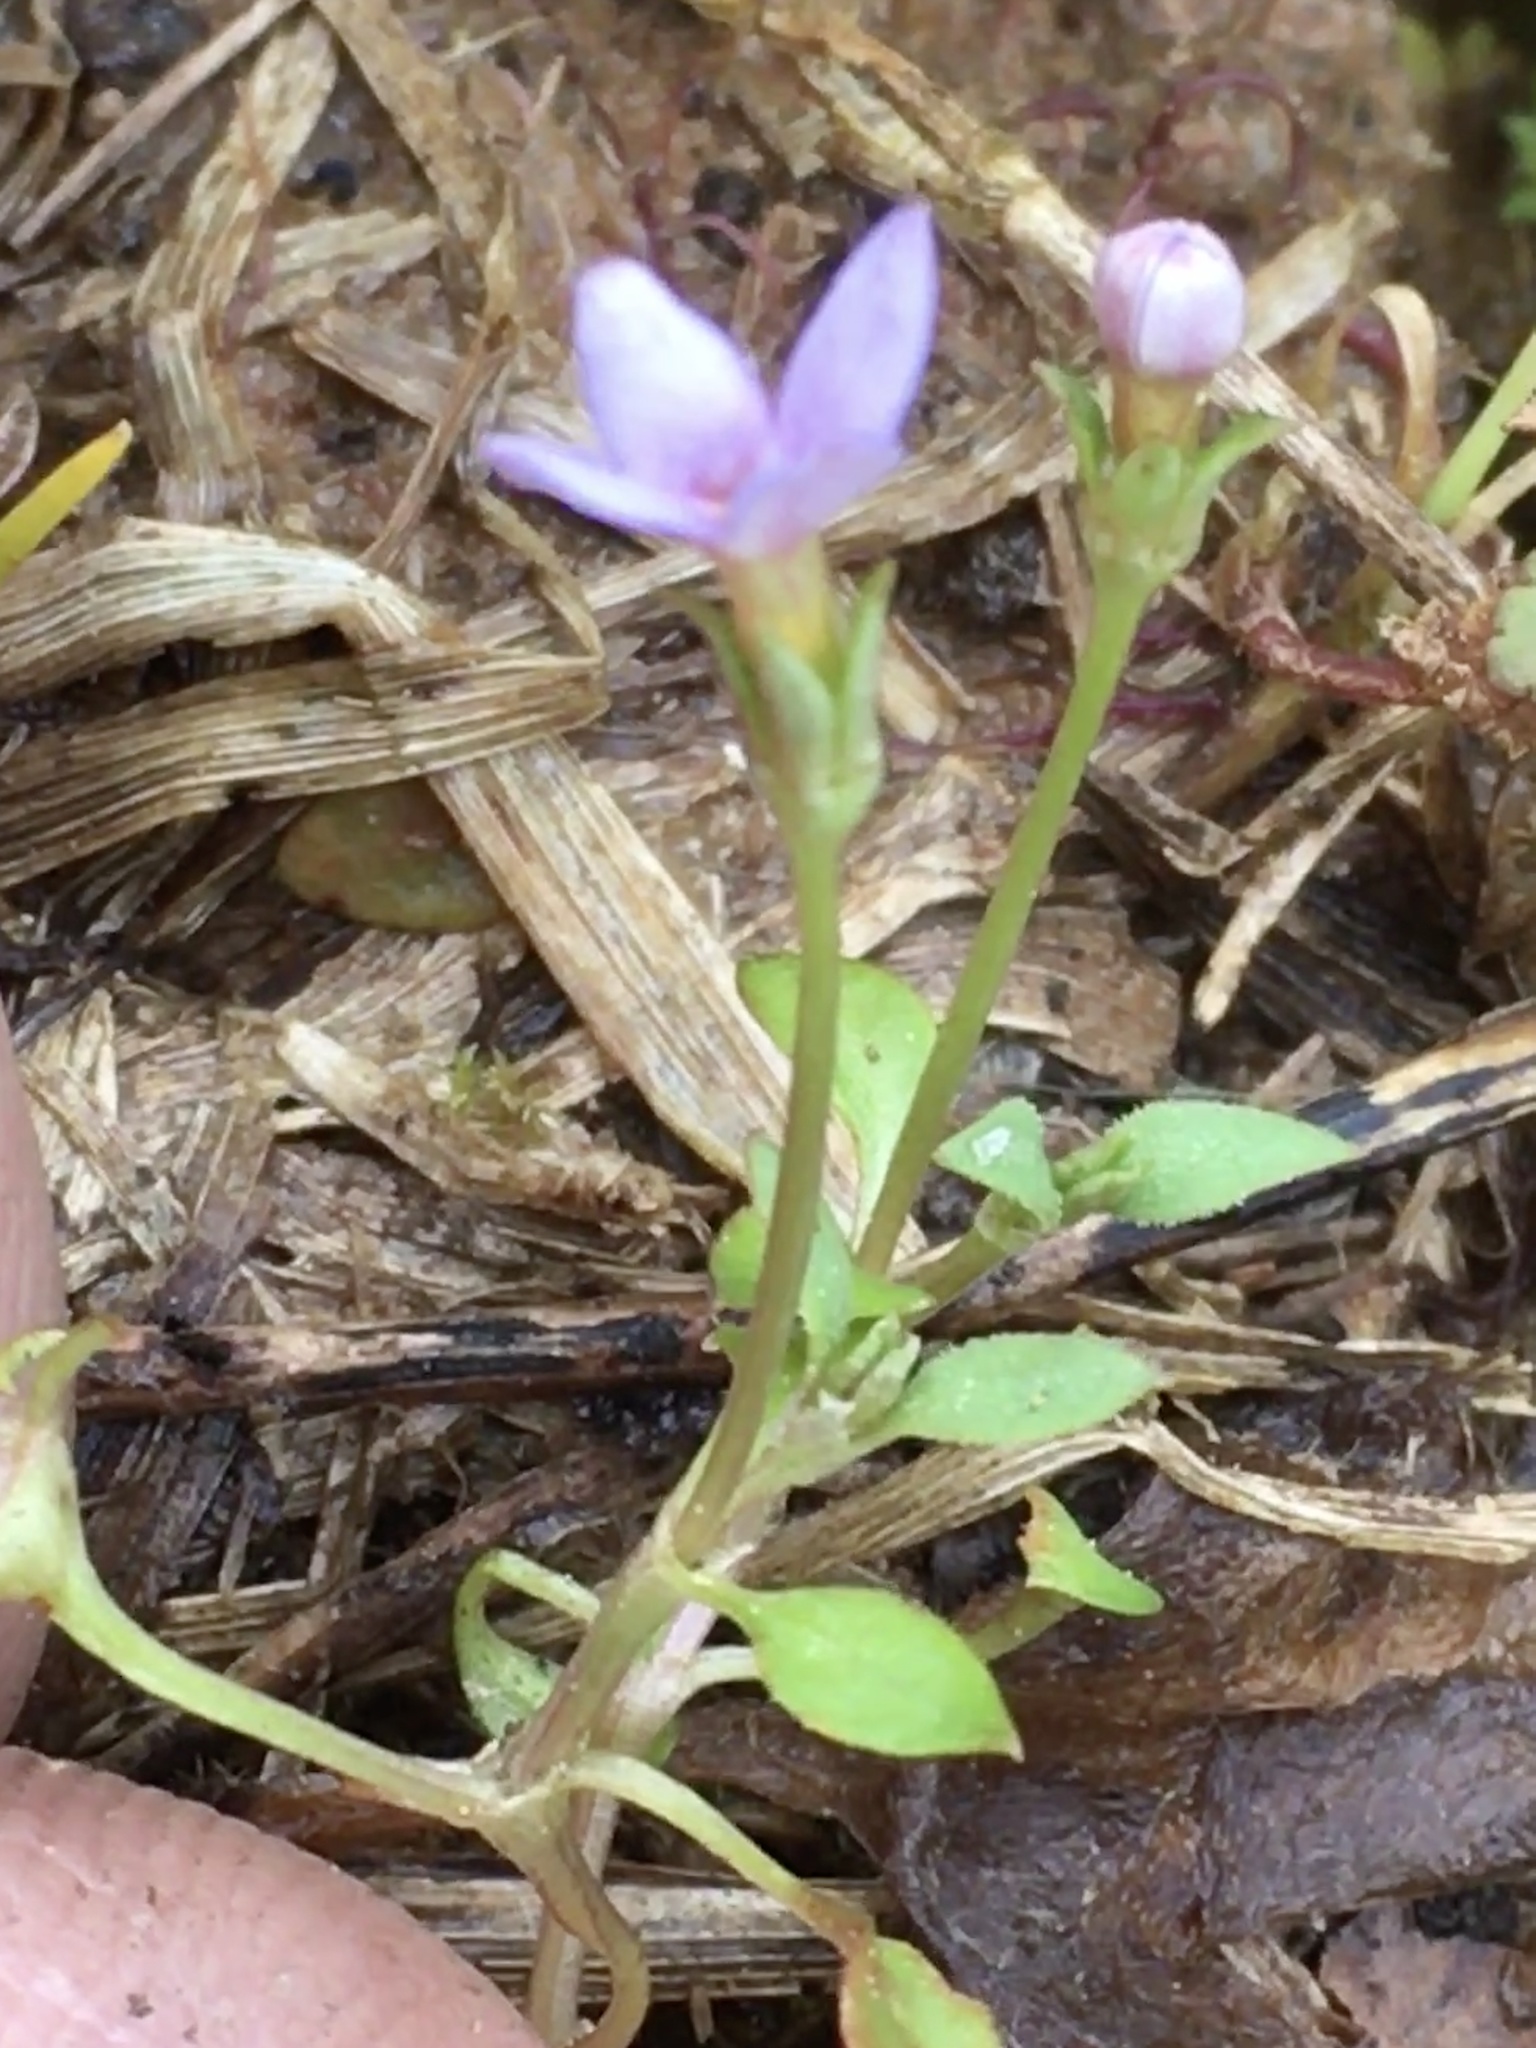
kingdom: Plantae
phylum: Tracheophyta
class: Magnoliopsida
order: Gentianales
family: Rubiaceae
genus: Houstonia
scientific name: Houstonia pusilla
